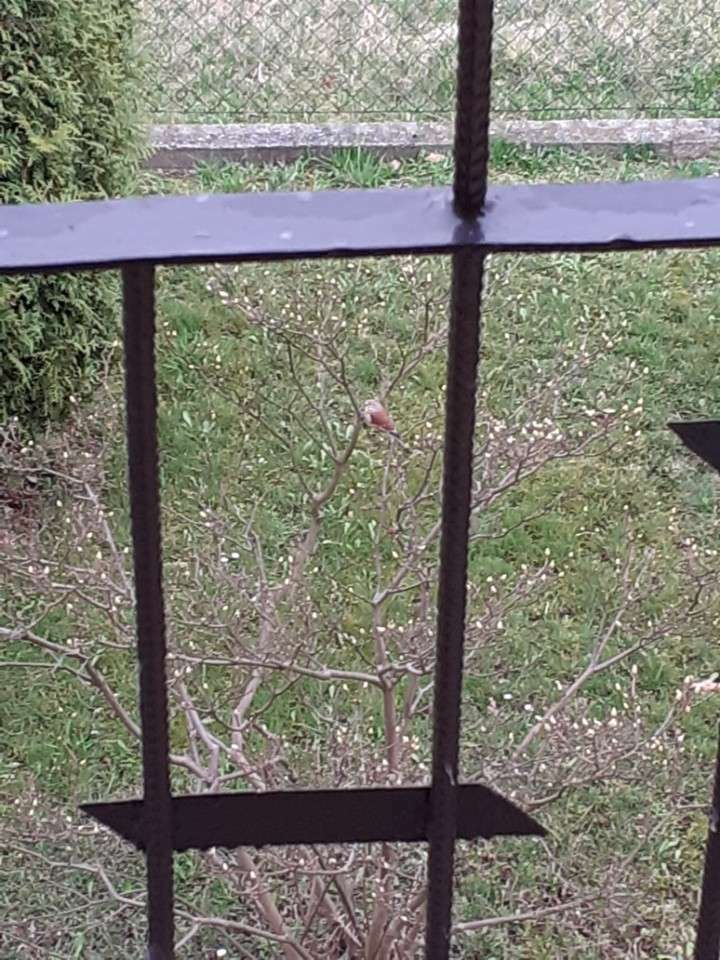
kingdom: Animalia
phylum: Chordata
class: Aves
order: Passeriformes
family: Fringillidae
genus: Linaria
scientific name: Linaria cannabina
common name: Common linnet
